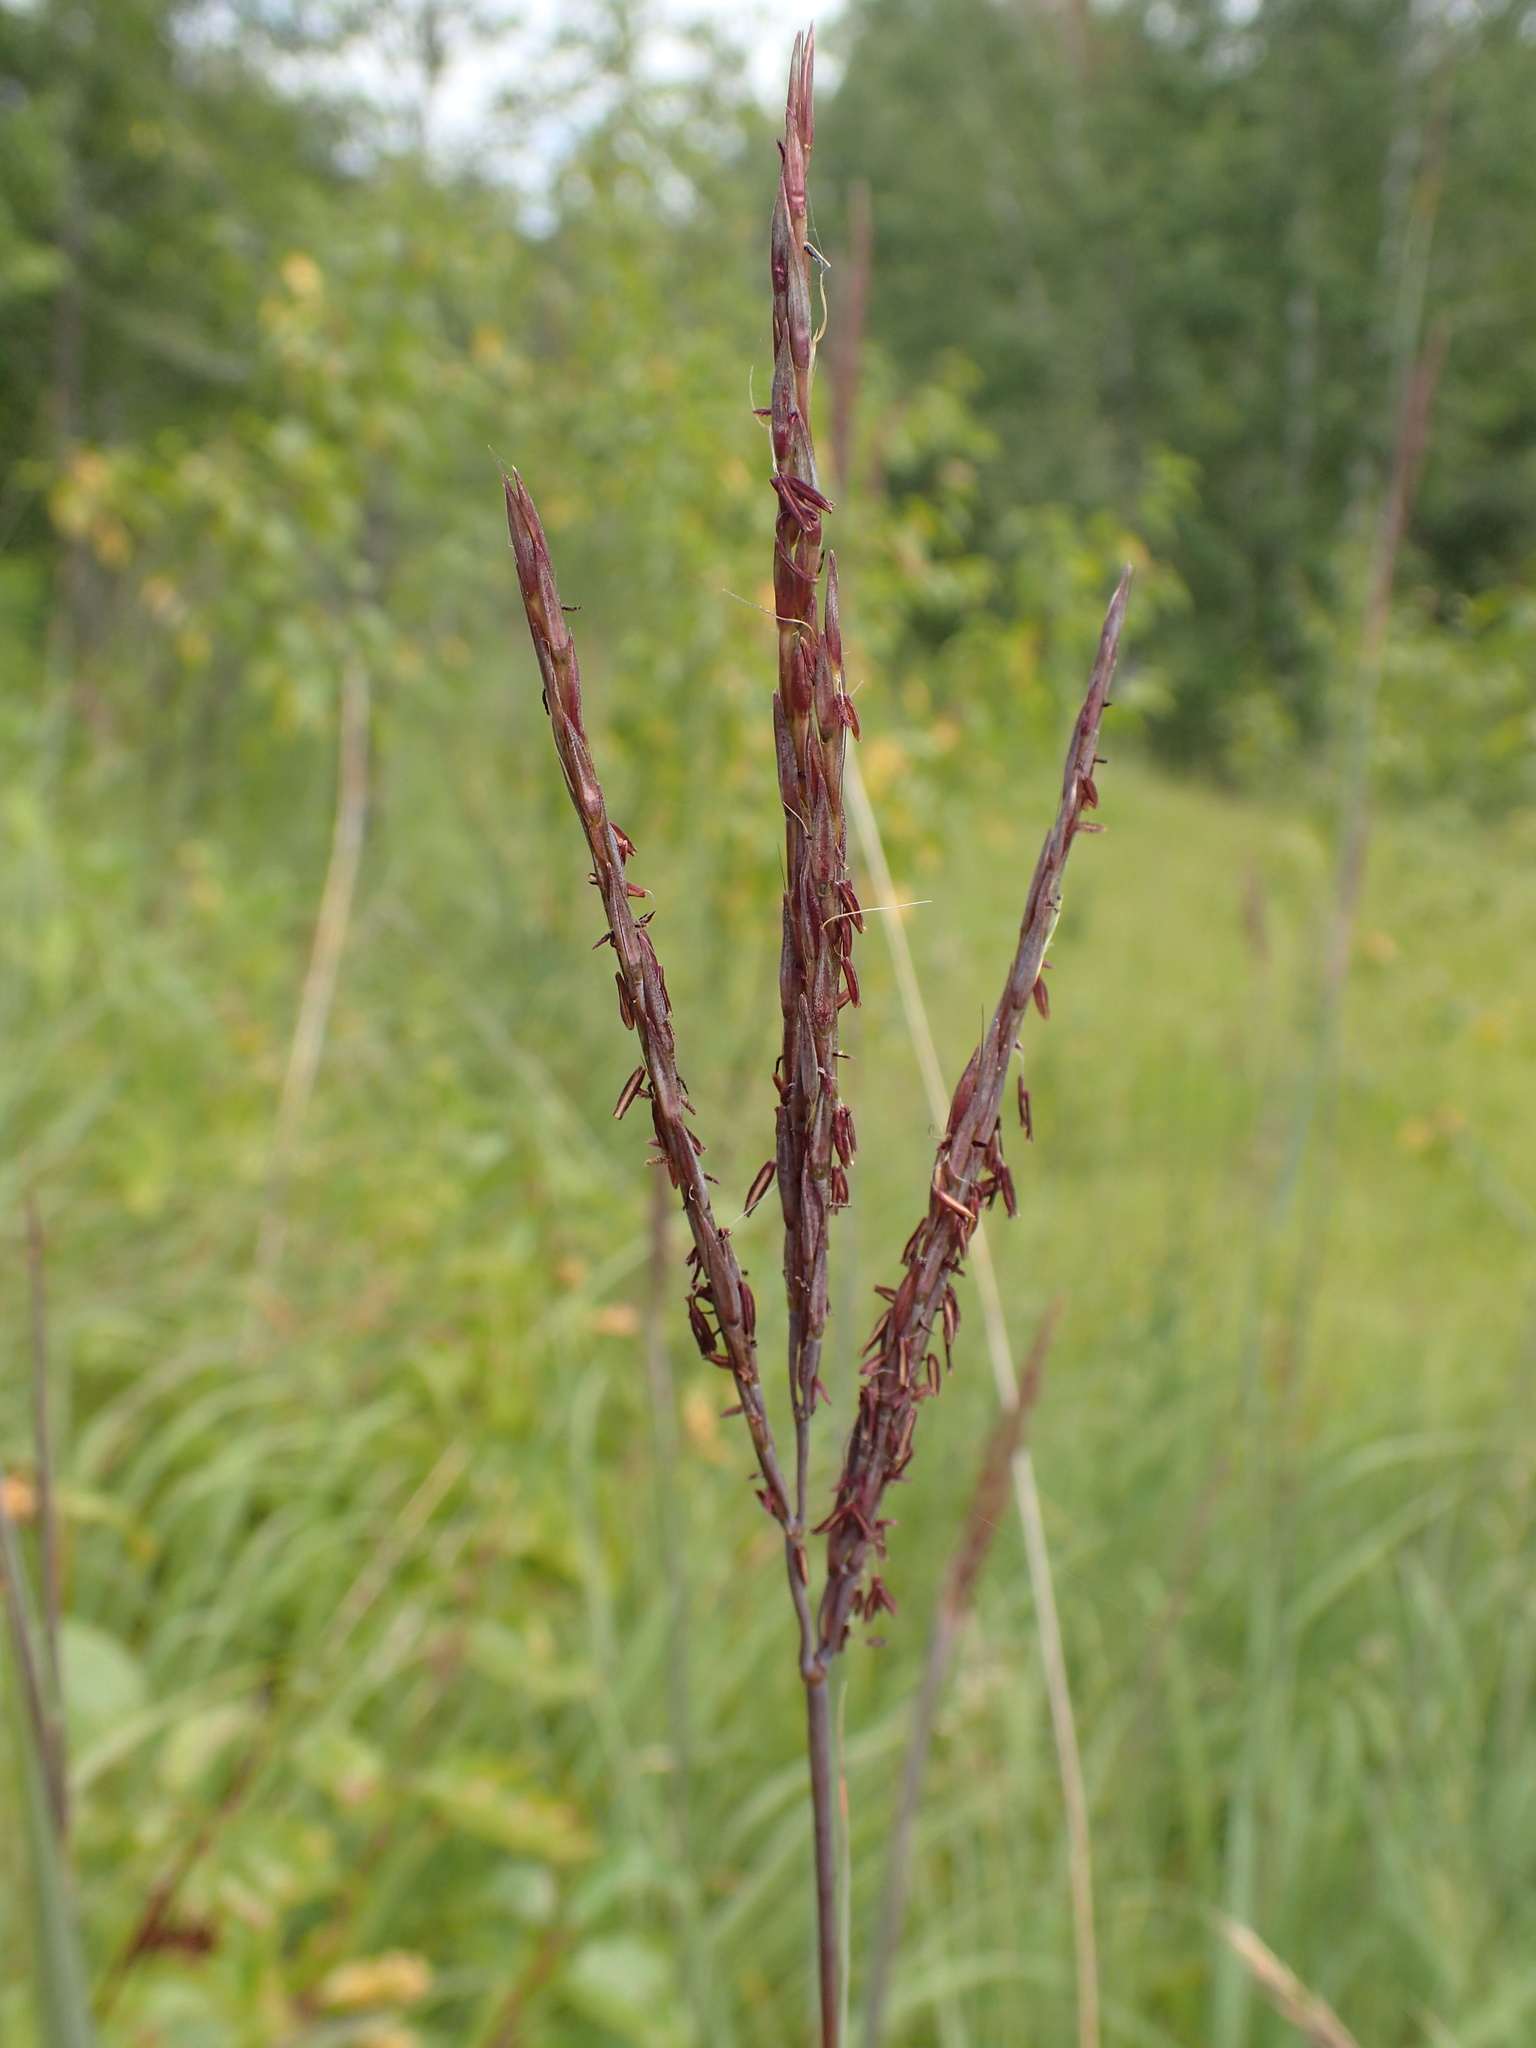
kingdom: Plantae
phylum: Tracheophyta
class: Liliopsida
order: Poales
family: Poaceae
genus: Andropogon
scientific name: Andropogon gerardi
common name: Big bluestem
